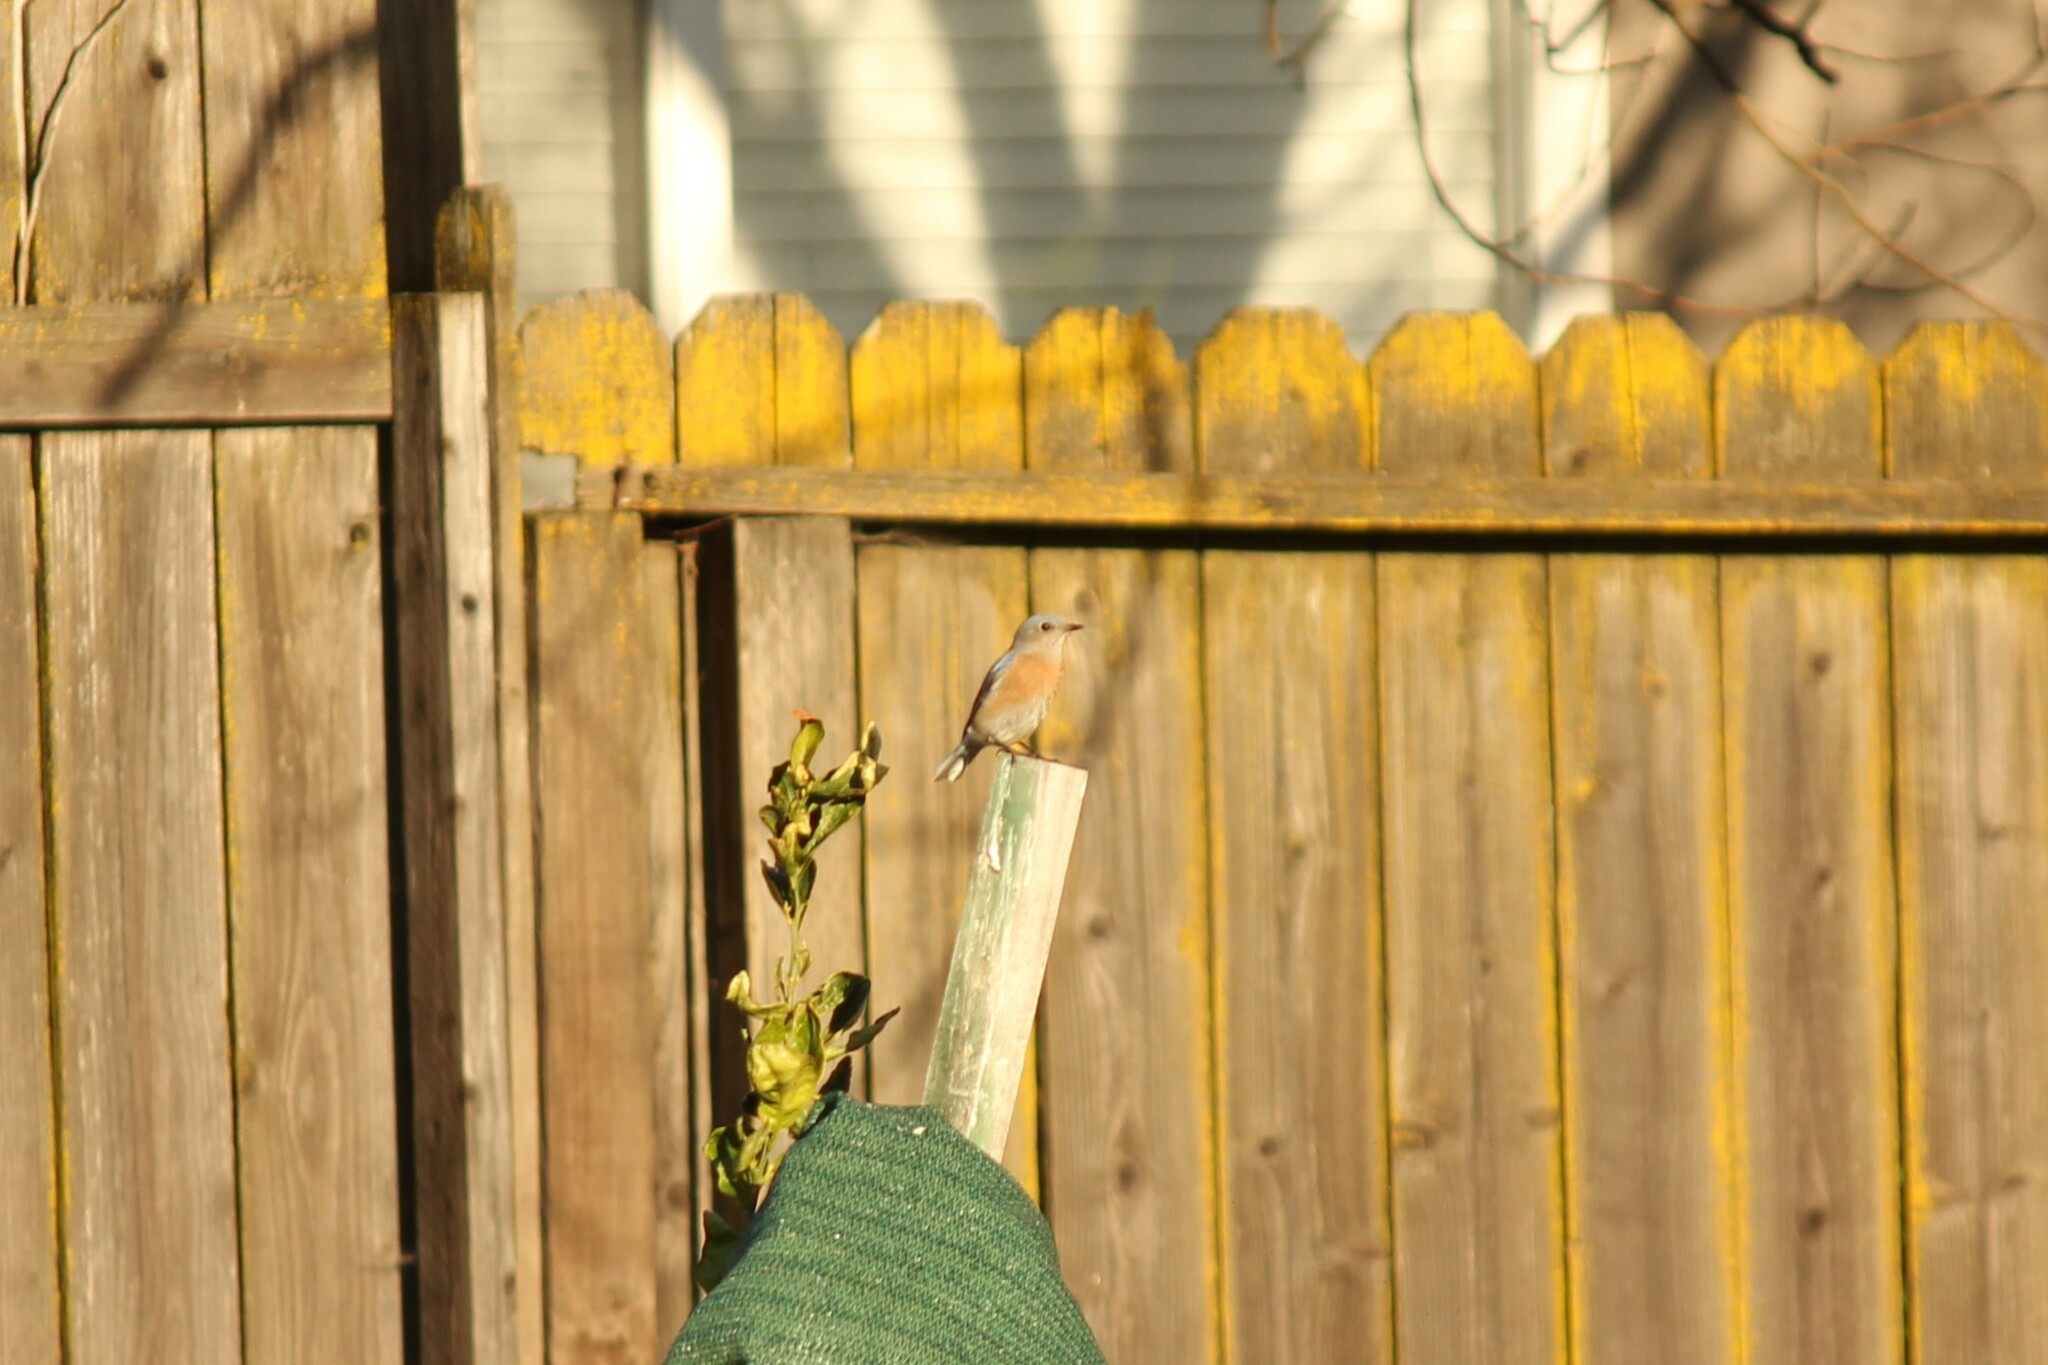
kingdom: Animalia
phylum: Chordata
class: Aves
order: Passeriformes
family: Turdidae
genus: Sialia
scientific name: Sialia mexicana
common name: Western bluebird
